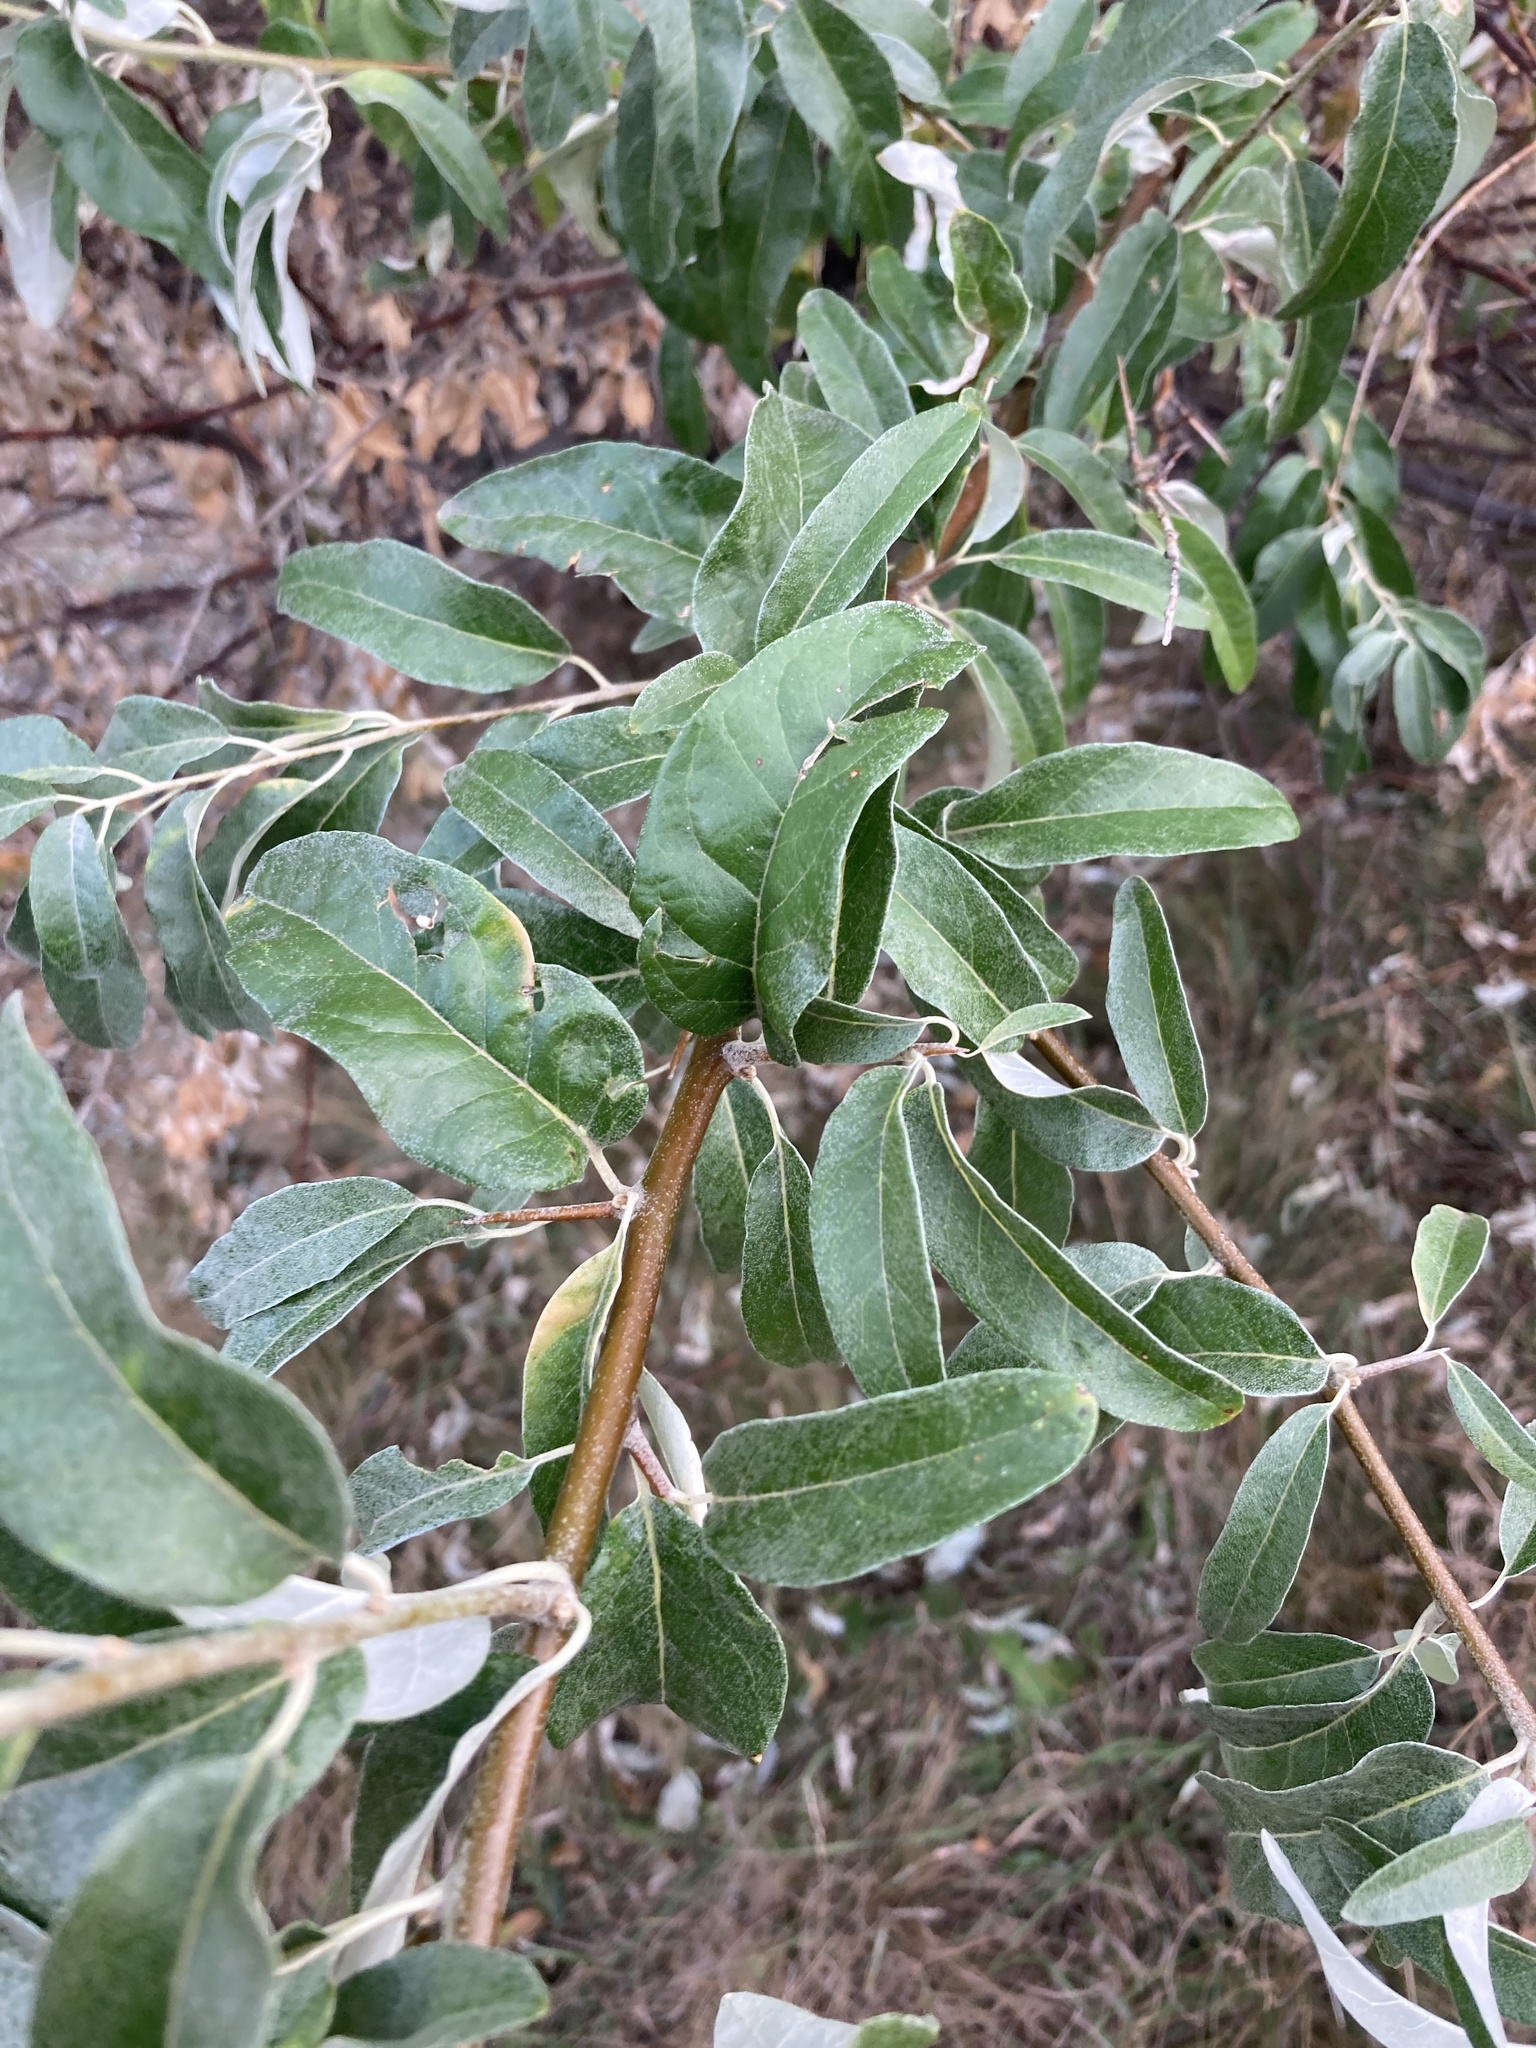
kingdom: Plantae
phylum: Tracheophyta
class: Magnoliopsida
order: Rosales
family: Elaeagnaceae
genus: Elaeagnus
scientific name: Elaeagnus angustifolia
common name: Russian olive
